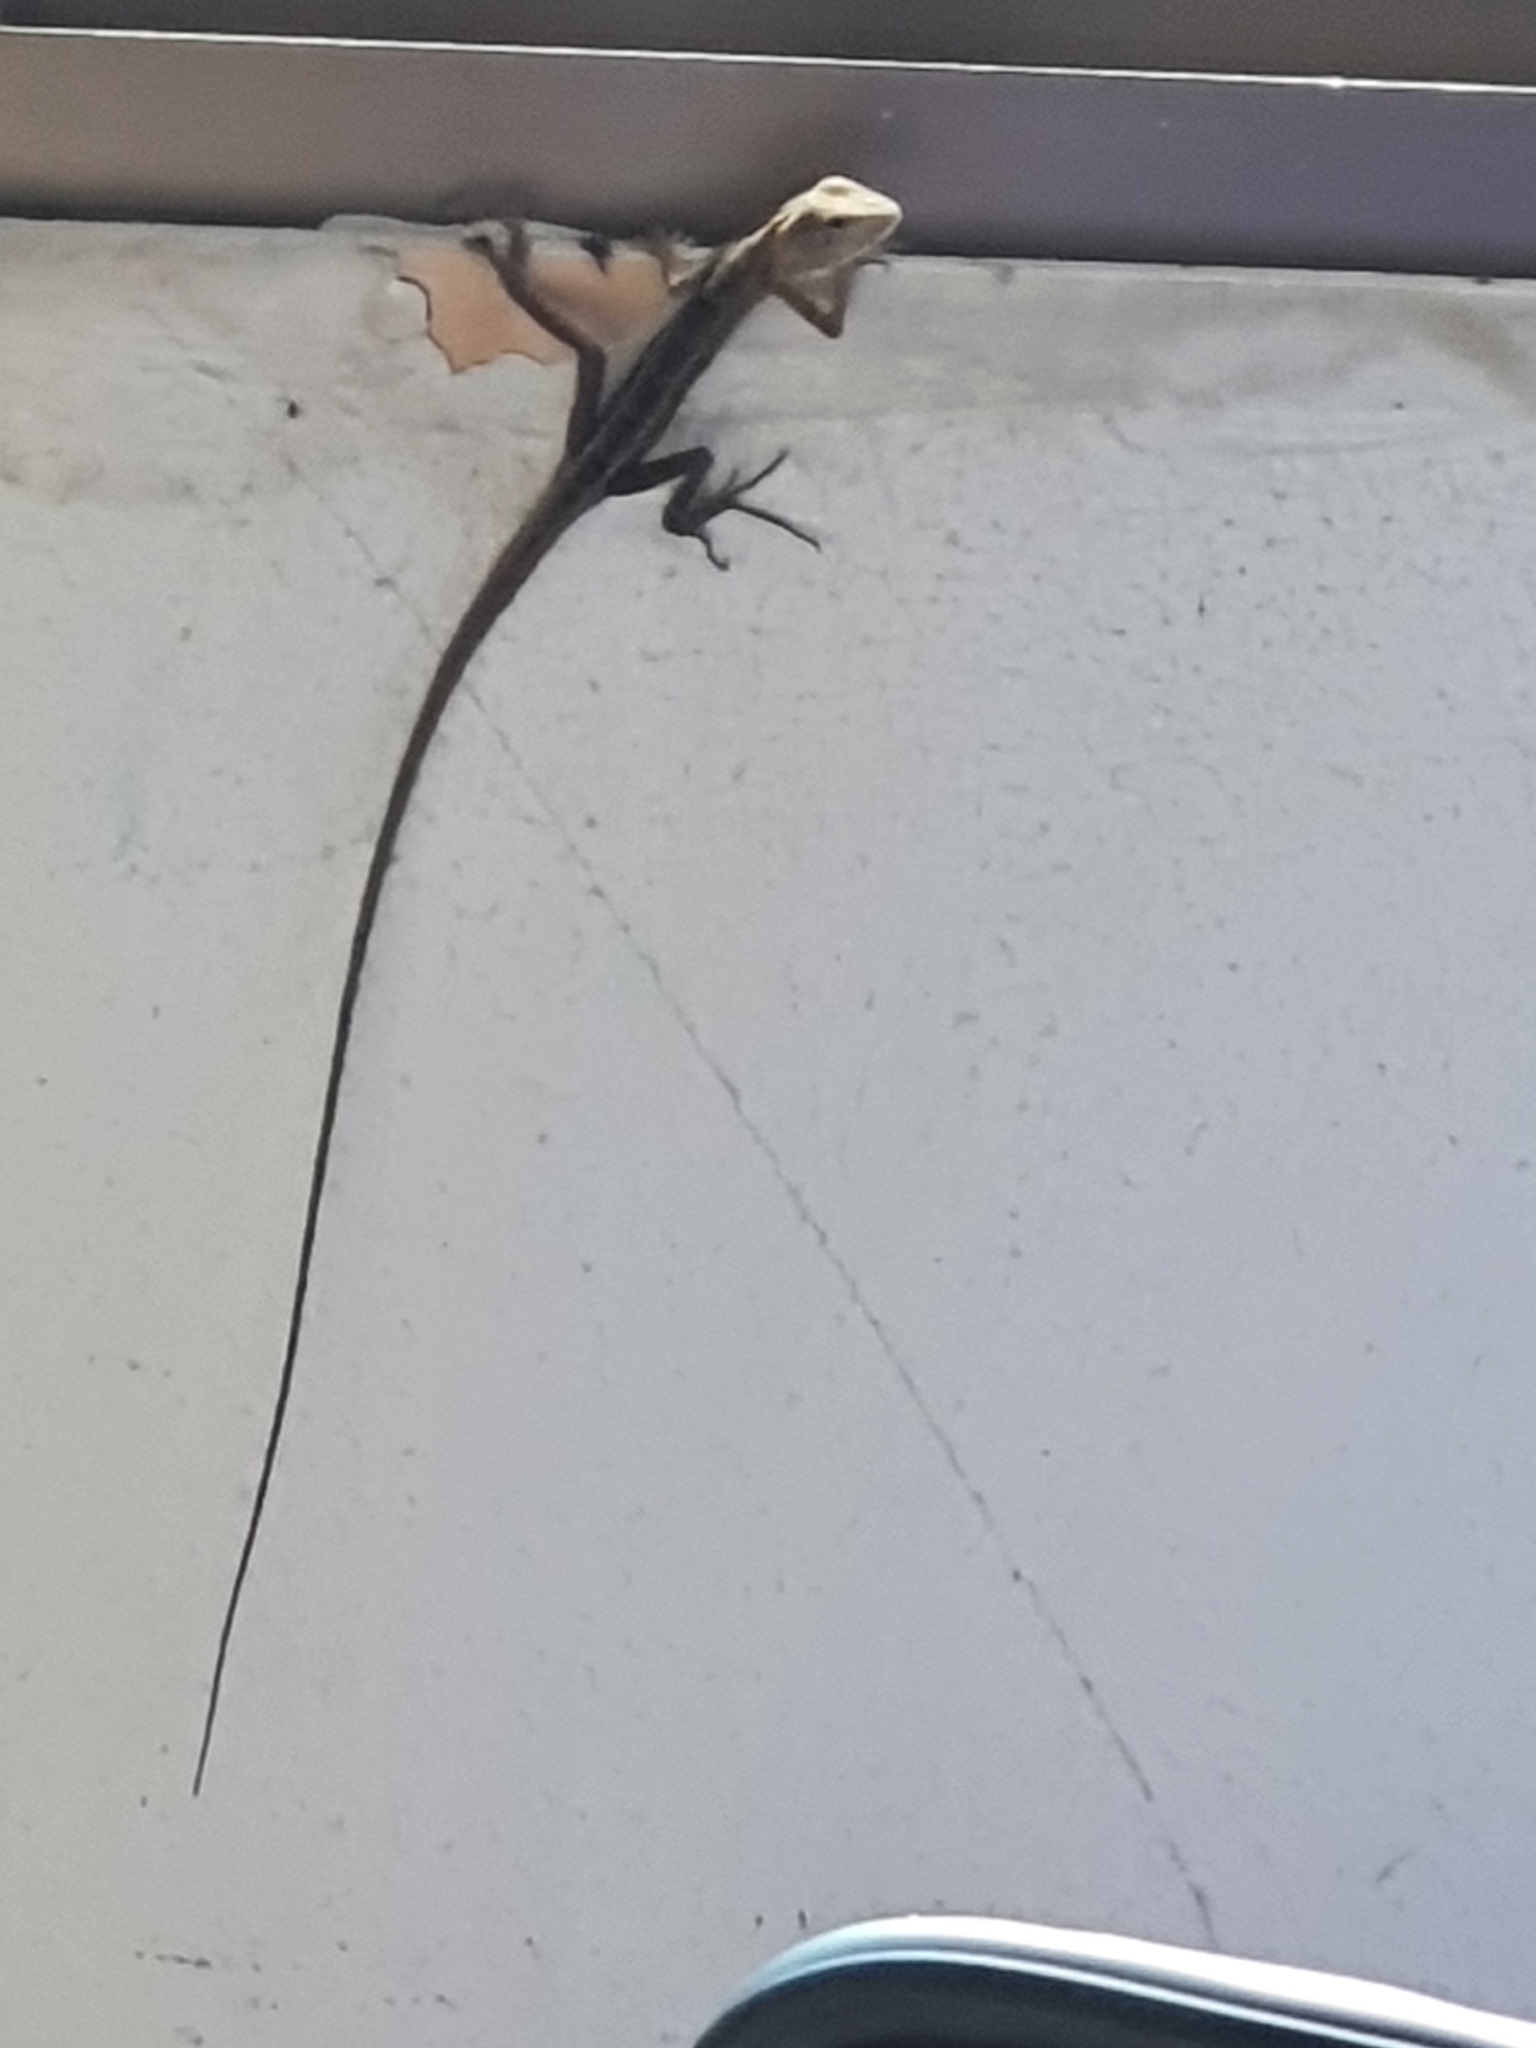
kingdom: Animalia
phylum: Chordata
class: Squamata
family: Agamidae
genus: Calotes
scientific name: Calotes versicolor
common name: Oriental garden lizard
